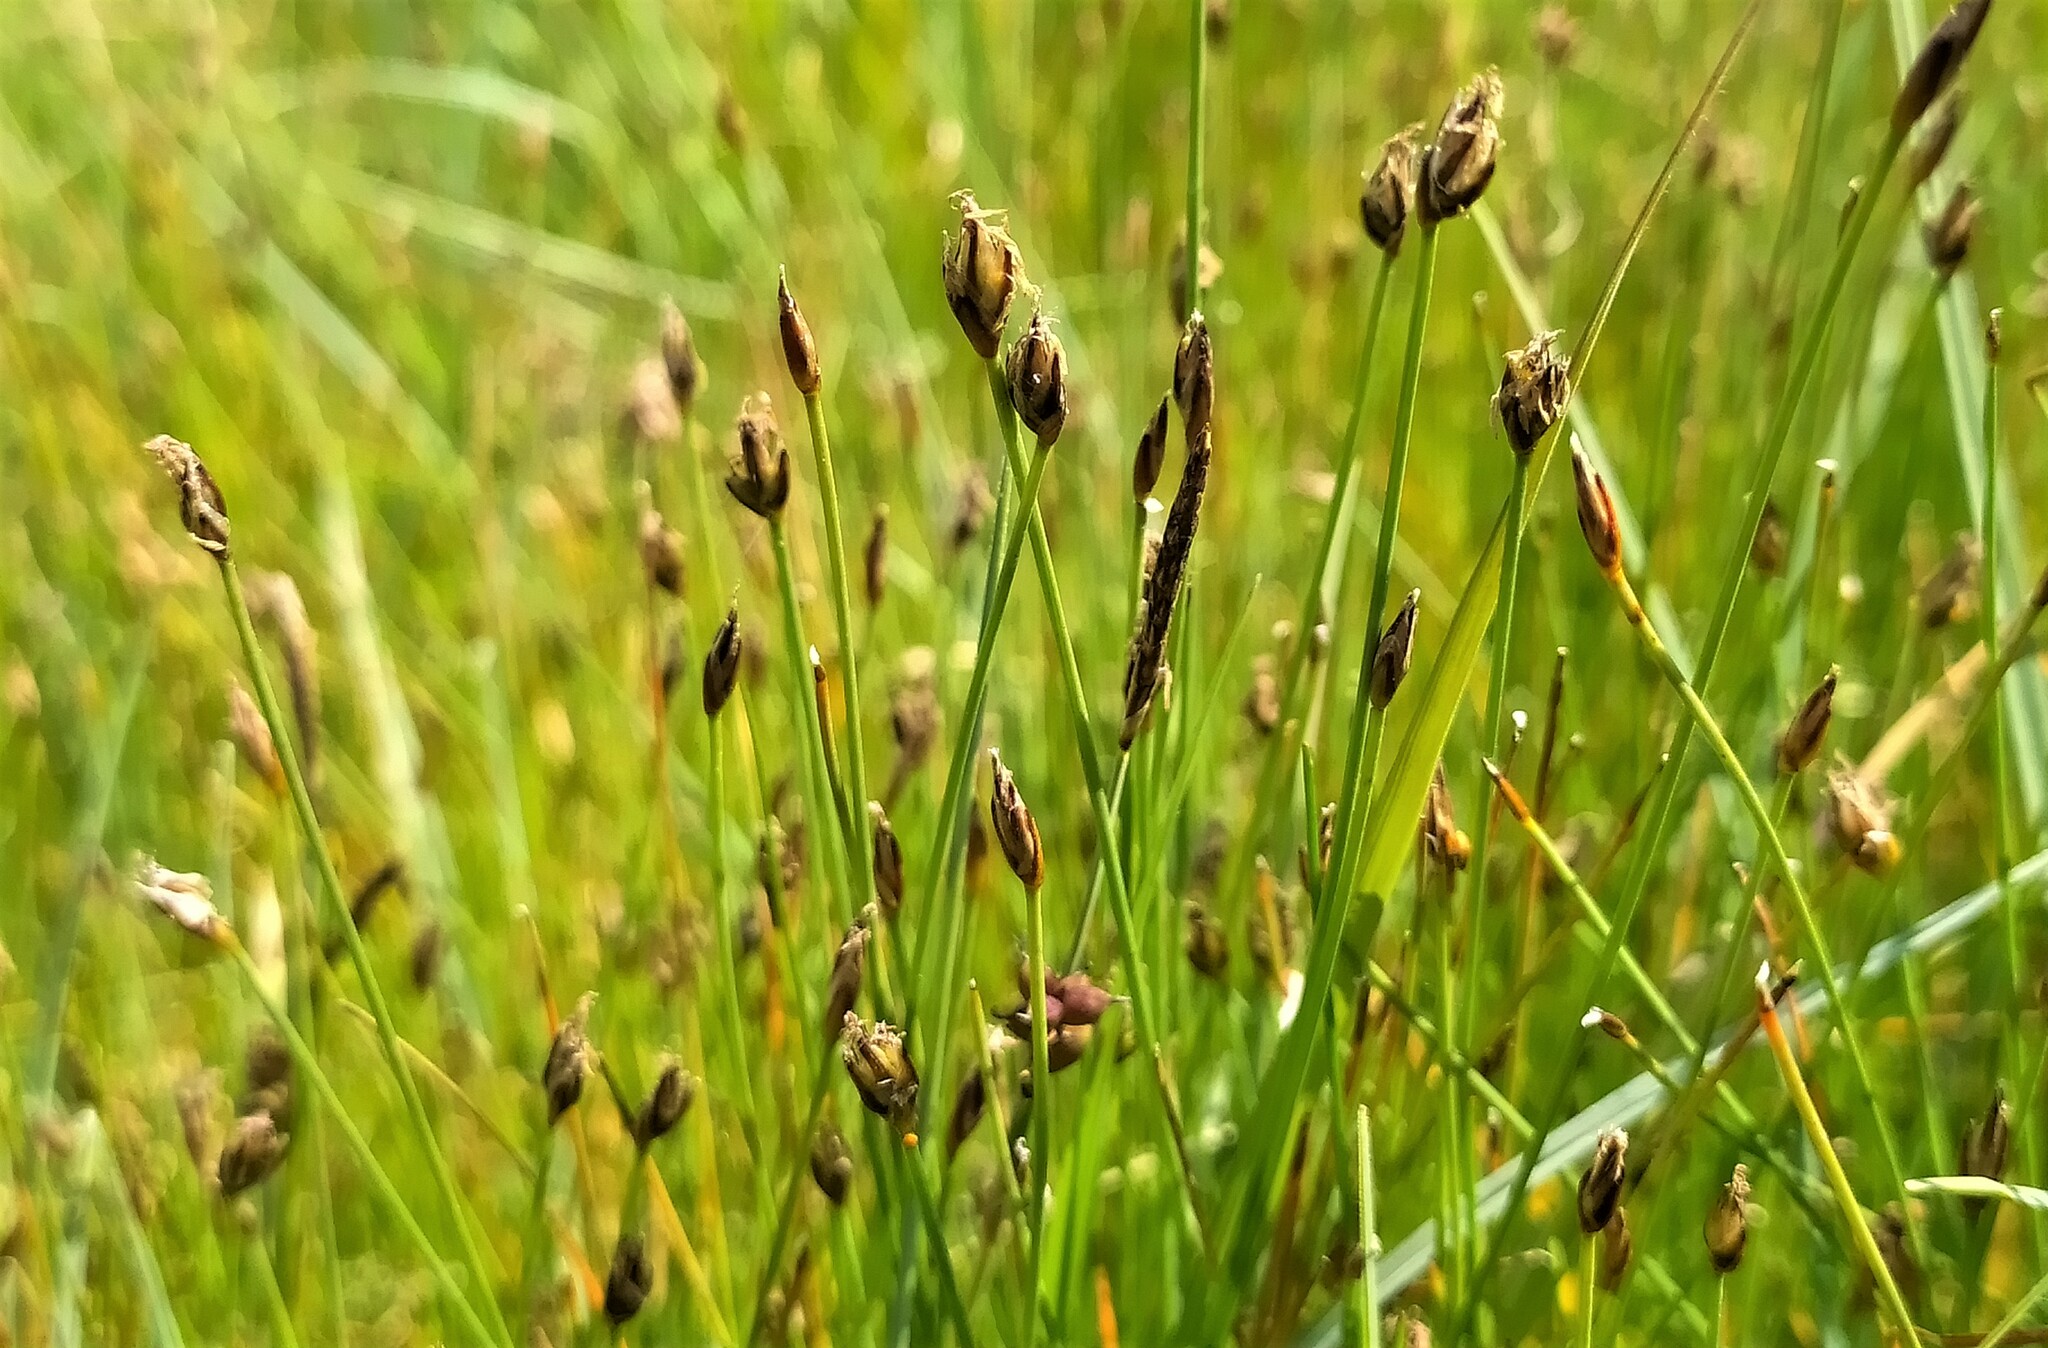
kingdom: Plantae
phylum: Tracheophyta
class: Liliopsida
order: Poales
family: Cyperaceae
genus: Eleocharis
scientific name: Eleocharis quinqueflora
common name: Few-flowered spike-rush
